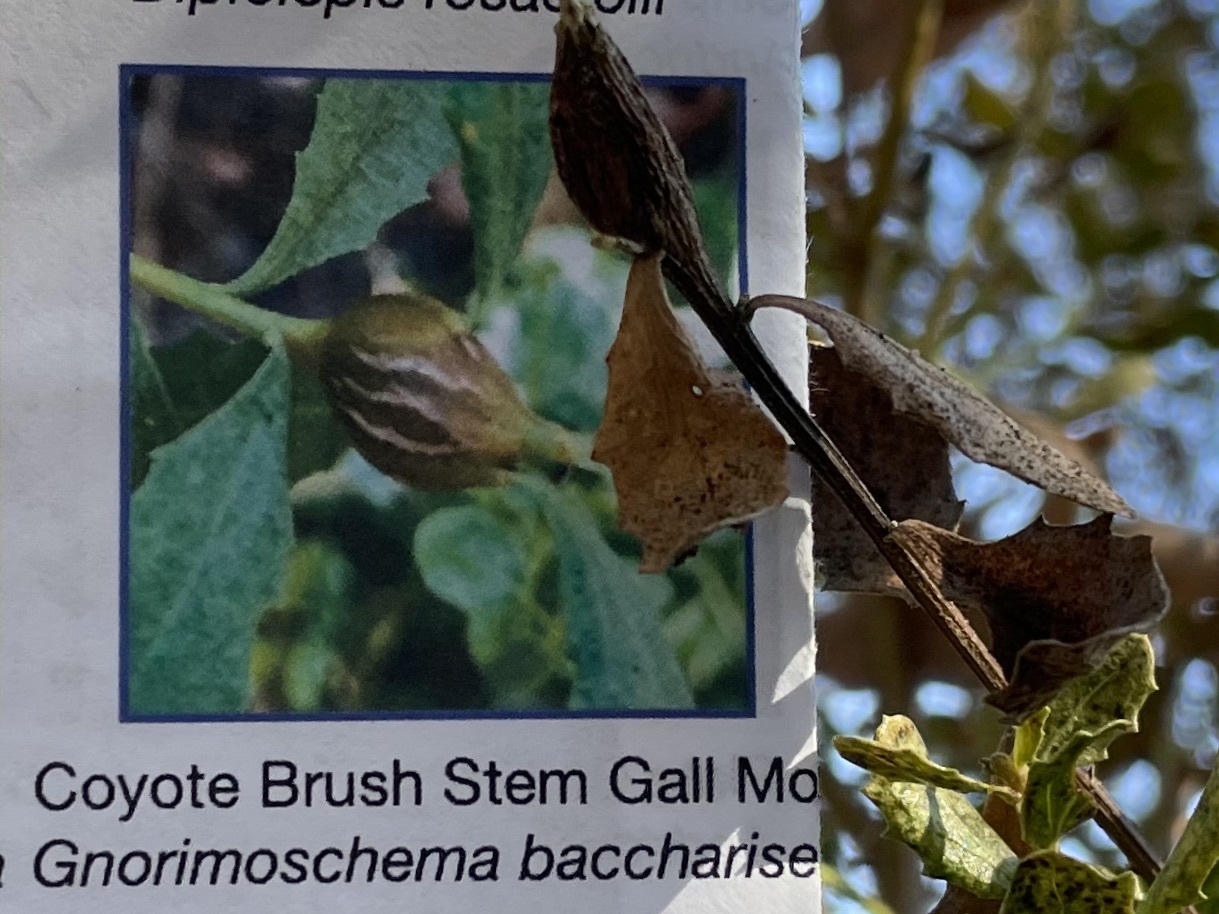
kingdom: Animalia
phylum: Arthropoda
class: Insecta
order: Lepidoptera
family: Gelechiidae
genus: Gnorimoschema
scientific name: Gnorimoschema baccharisella
